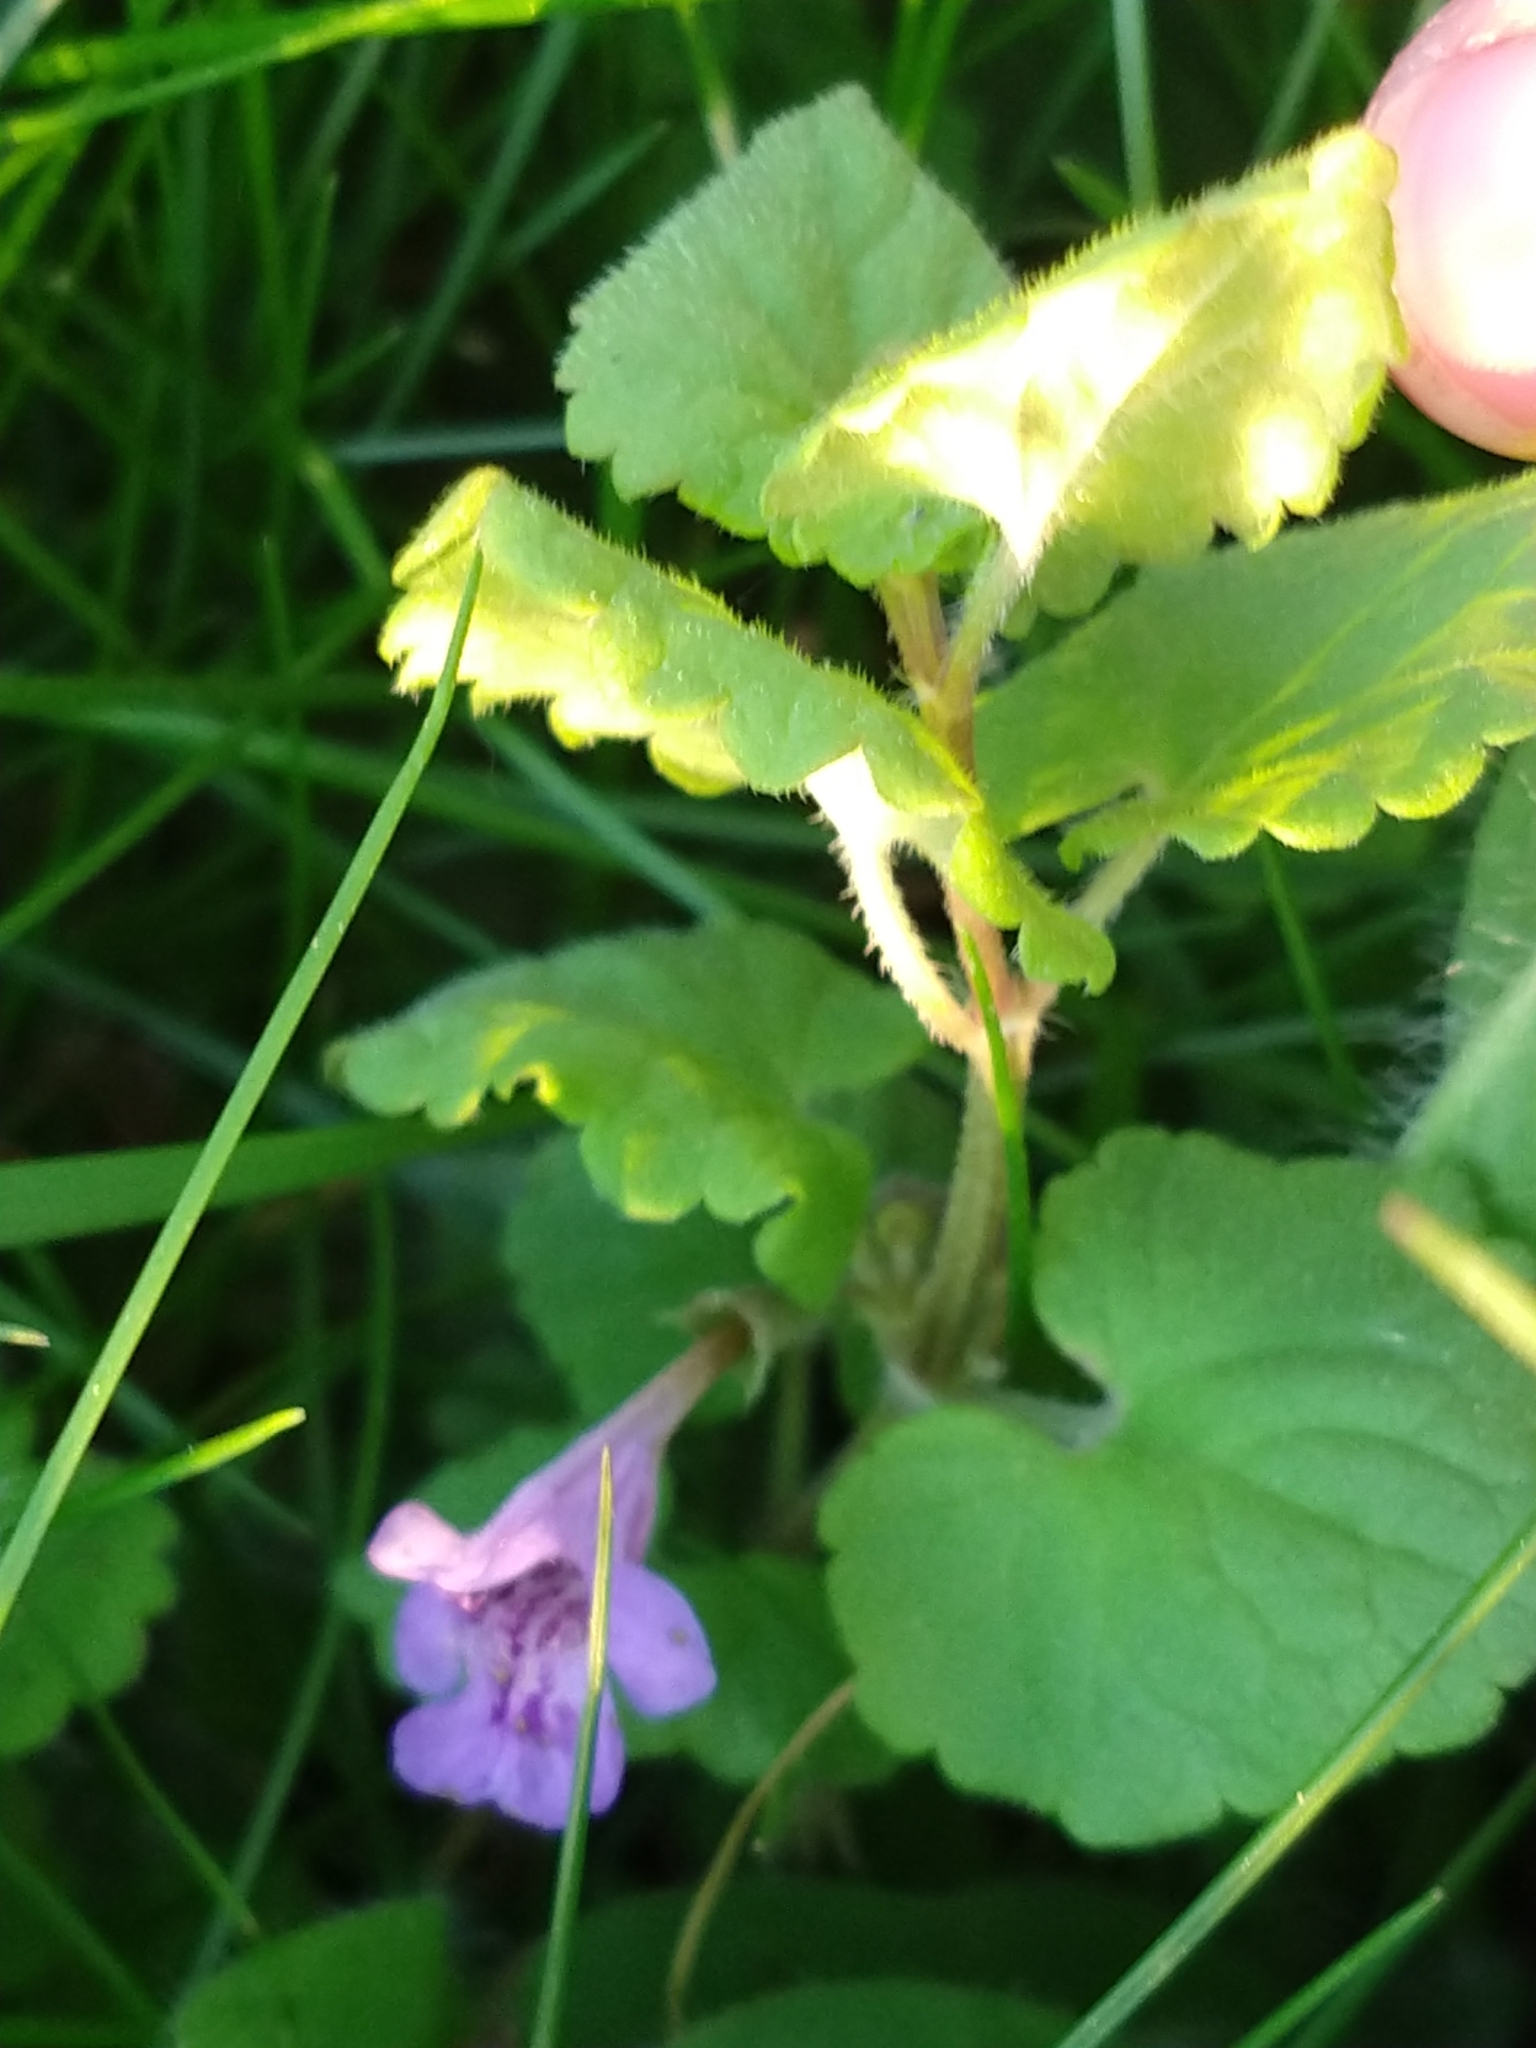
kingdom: Plantae
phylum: Tracheophyta
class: Magnoliopsida
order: Lamiales
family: Lamiaceae
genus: Glechoma
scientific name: Glechoma hederacea
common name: Ground ivy
